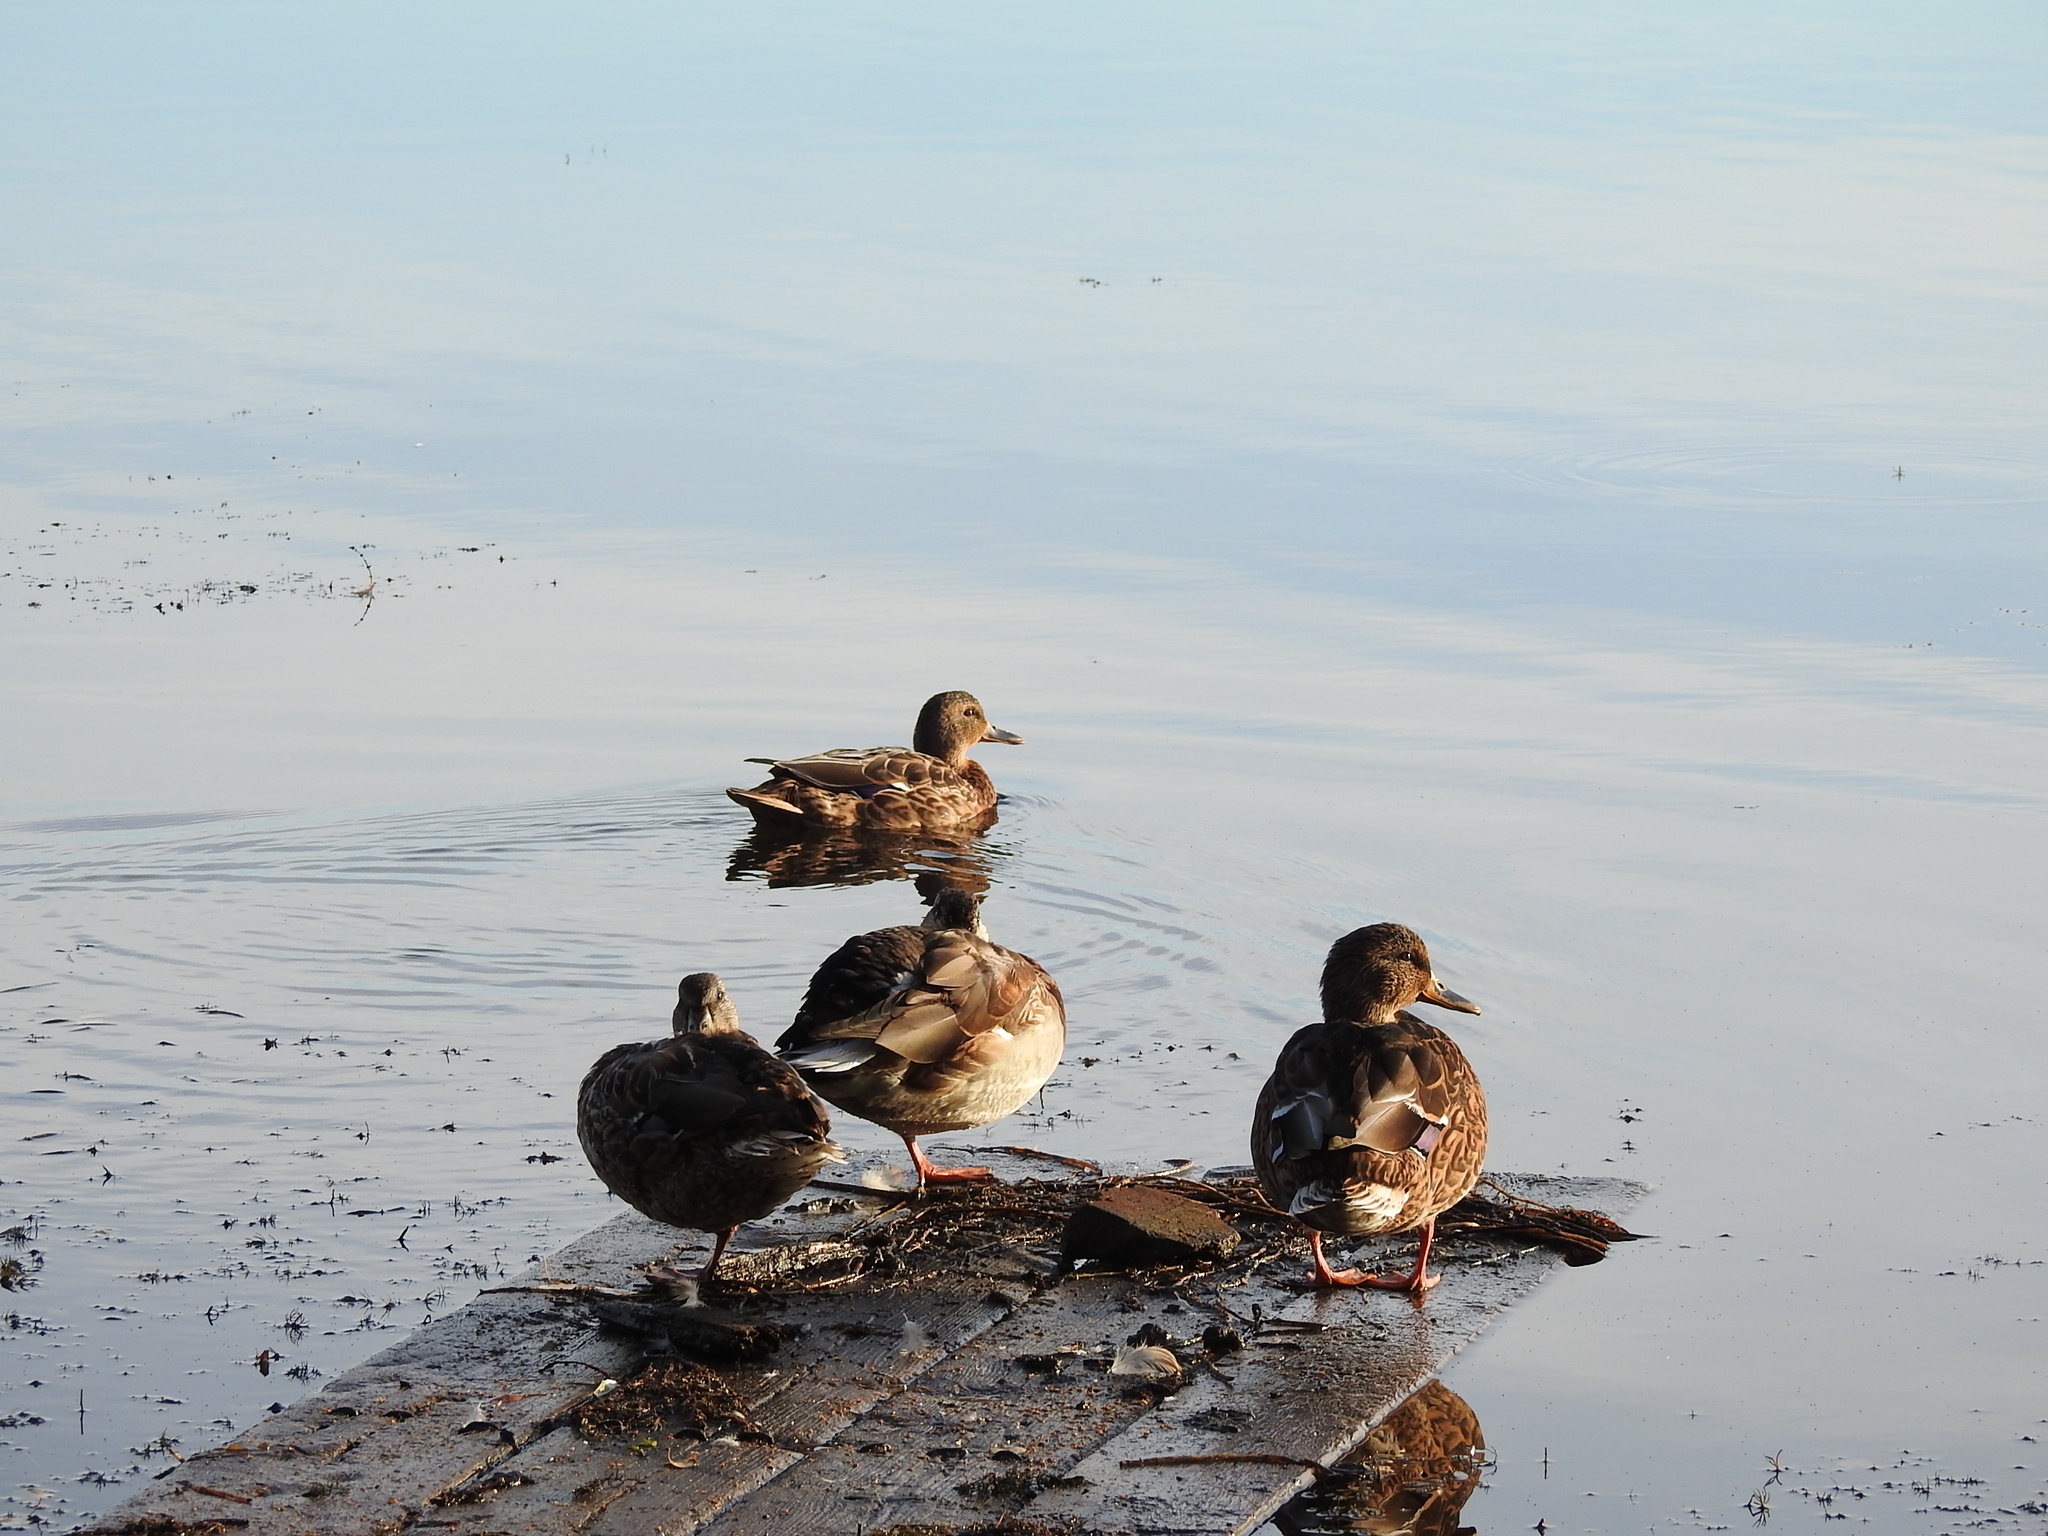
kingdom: Animalia
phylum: Chordata
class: Aves
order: Anseriformes
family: Anatidae
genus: Anas
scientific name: Anas platyrhynchos
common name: Mallard
